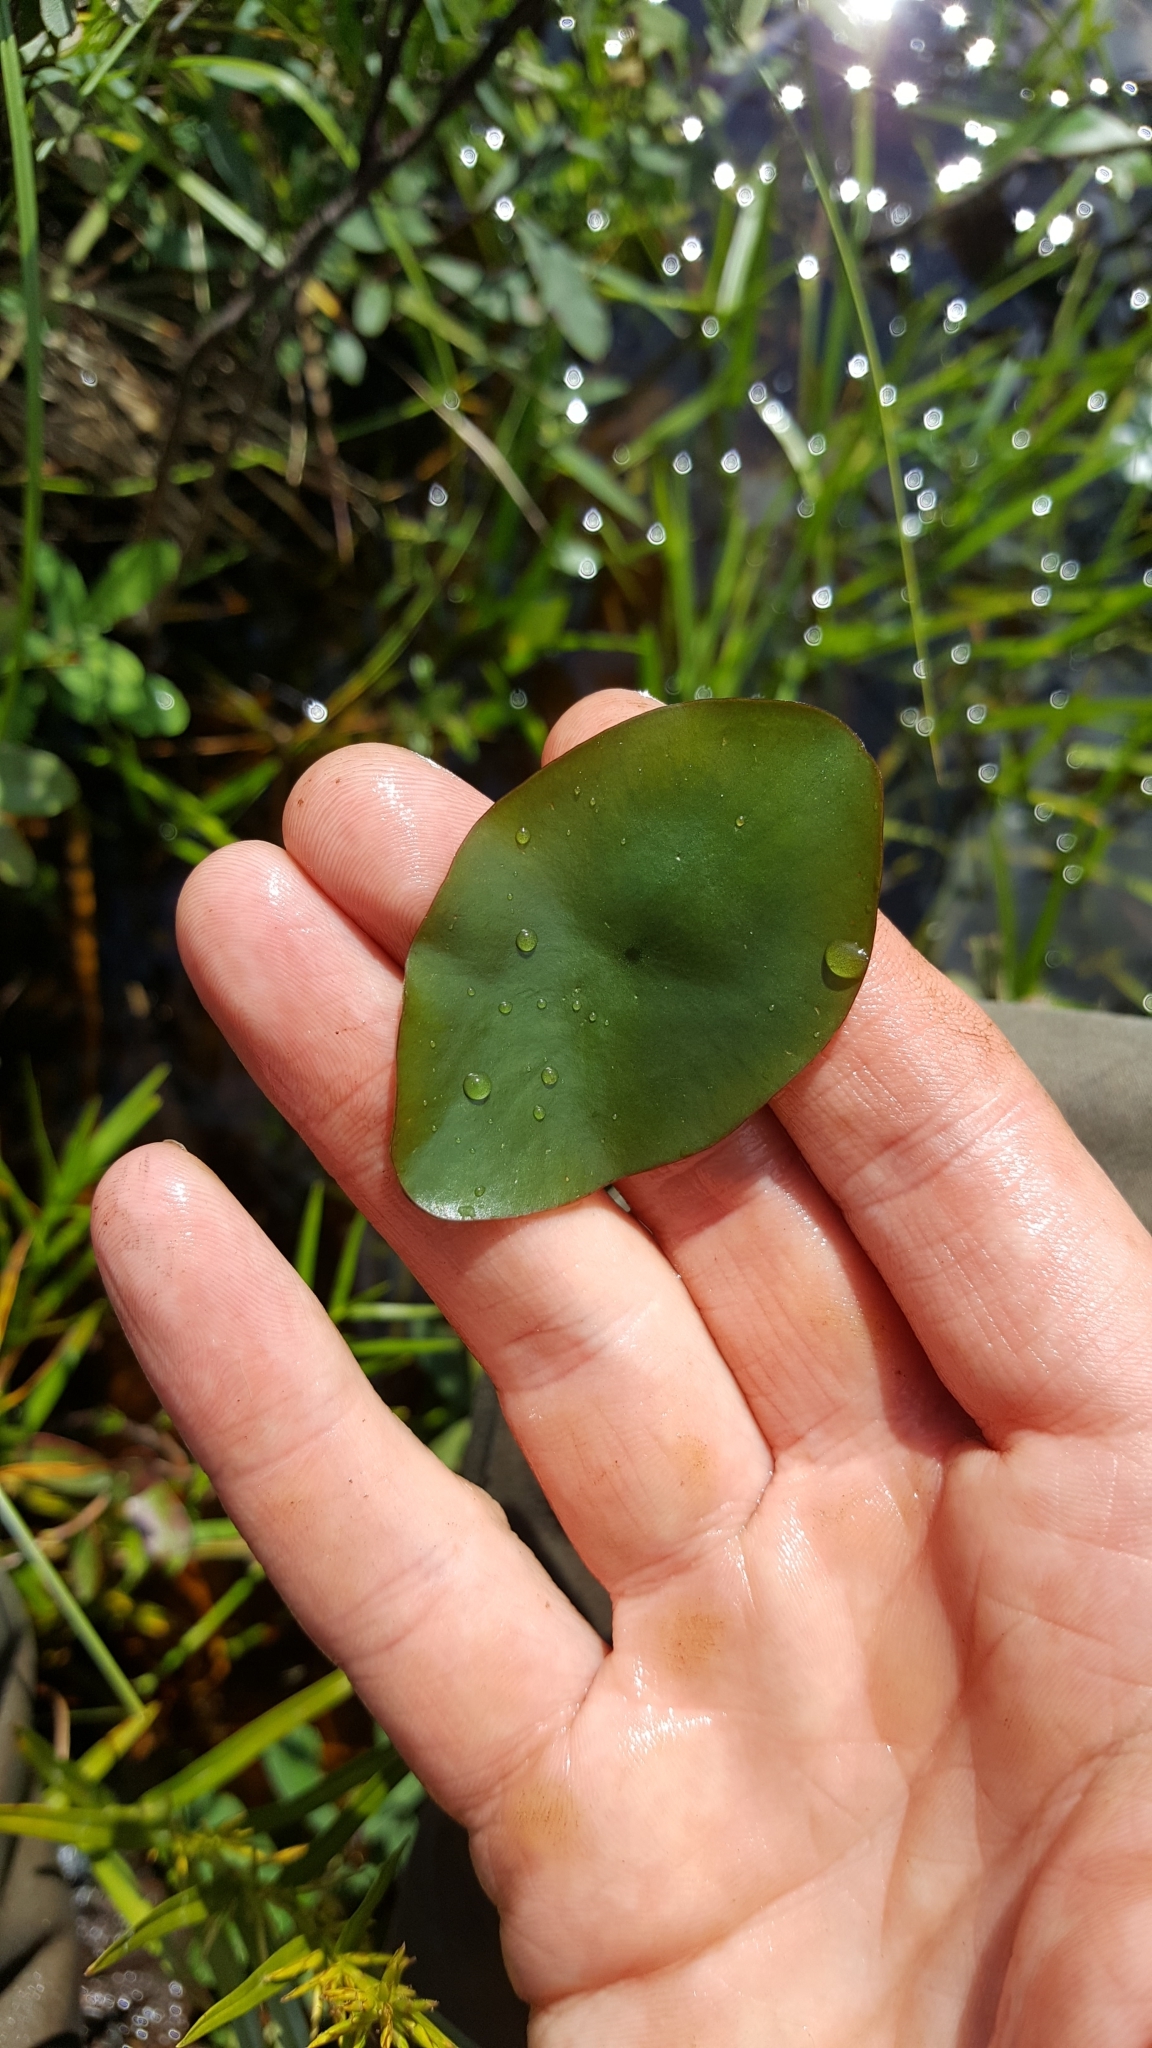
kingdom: Plantae
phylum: Tracheophyta
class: Magnoliopsida
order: Nymphaeales
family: Cabombaceae
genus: Brasenia
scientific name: Brasenia schreberi
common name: Water-shield
